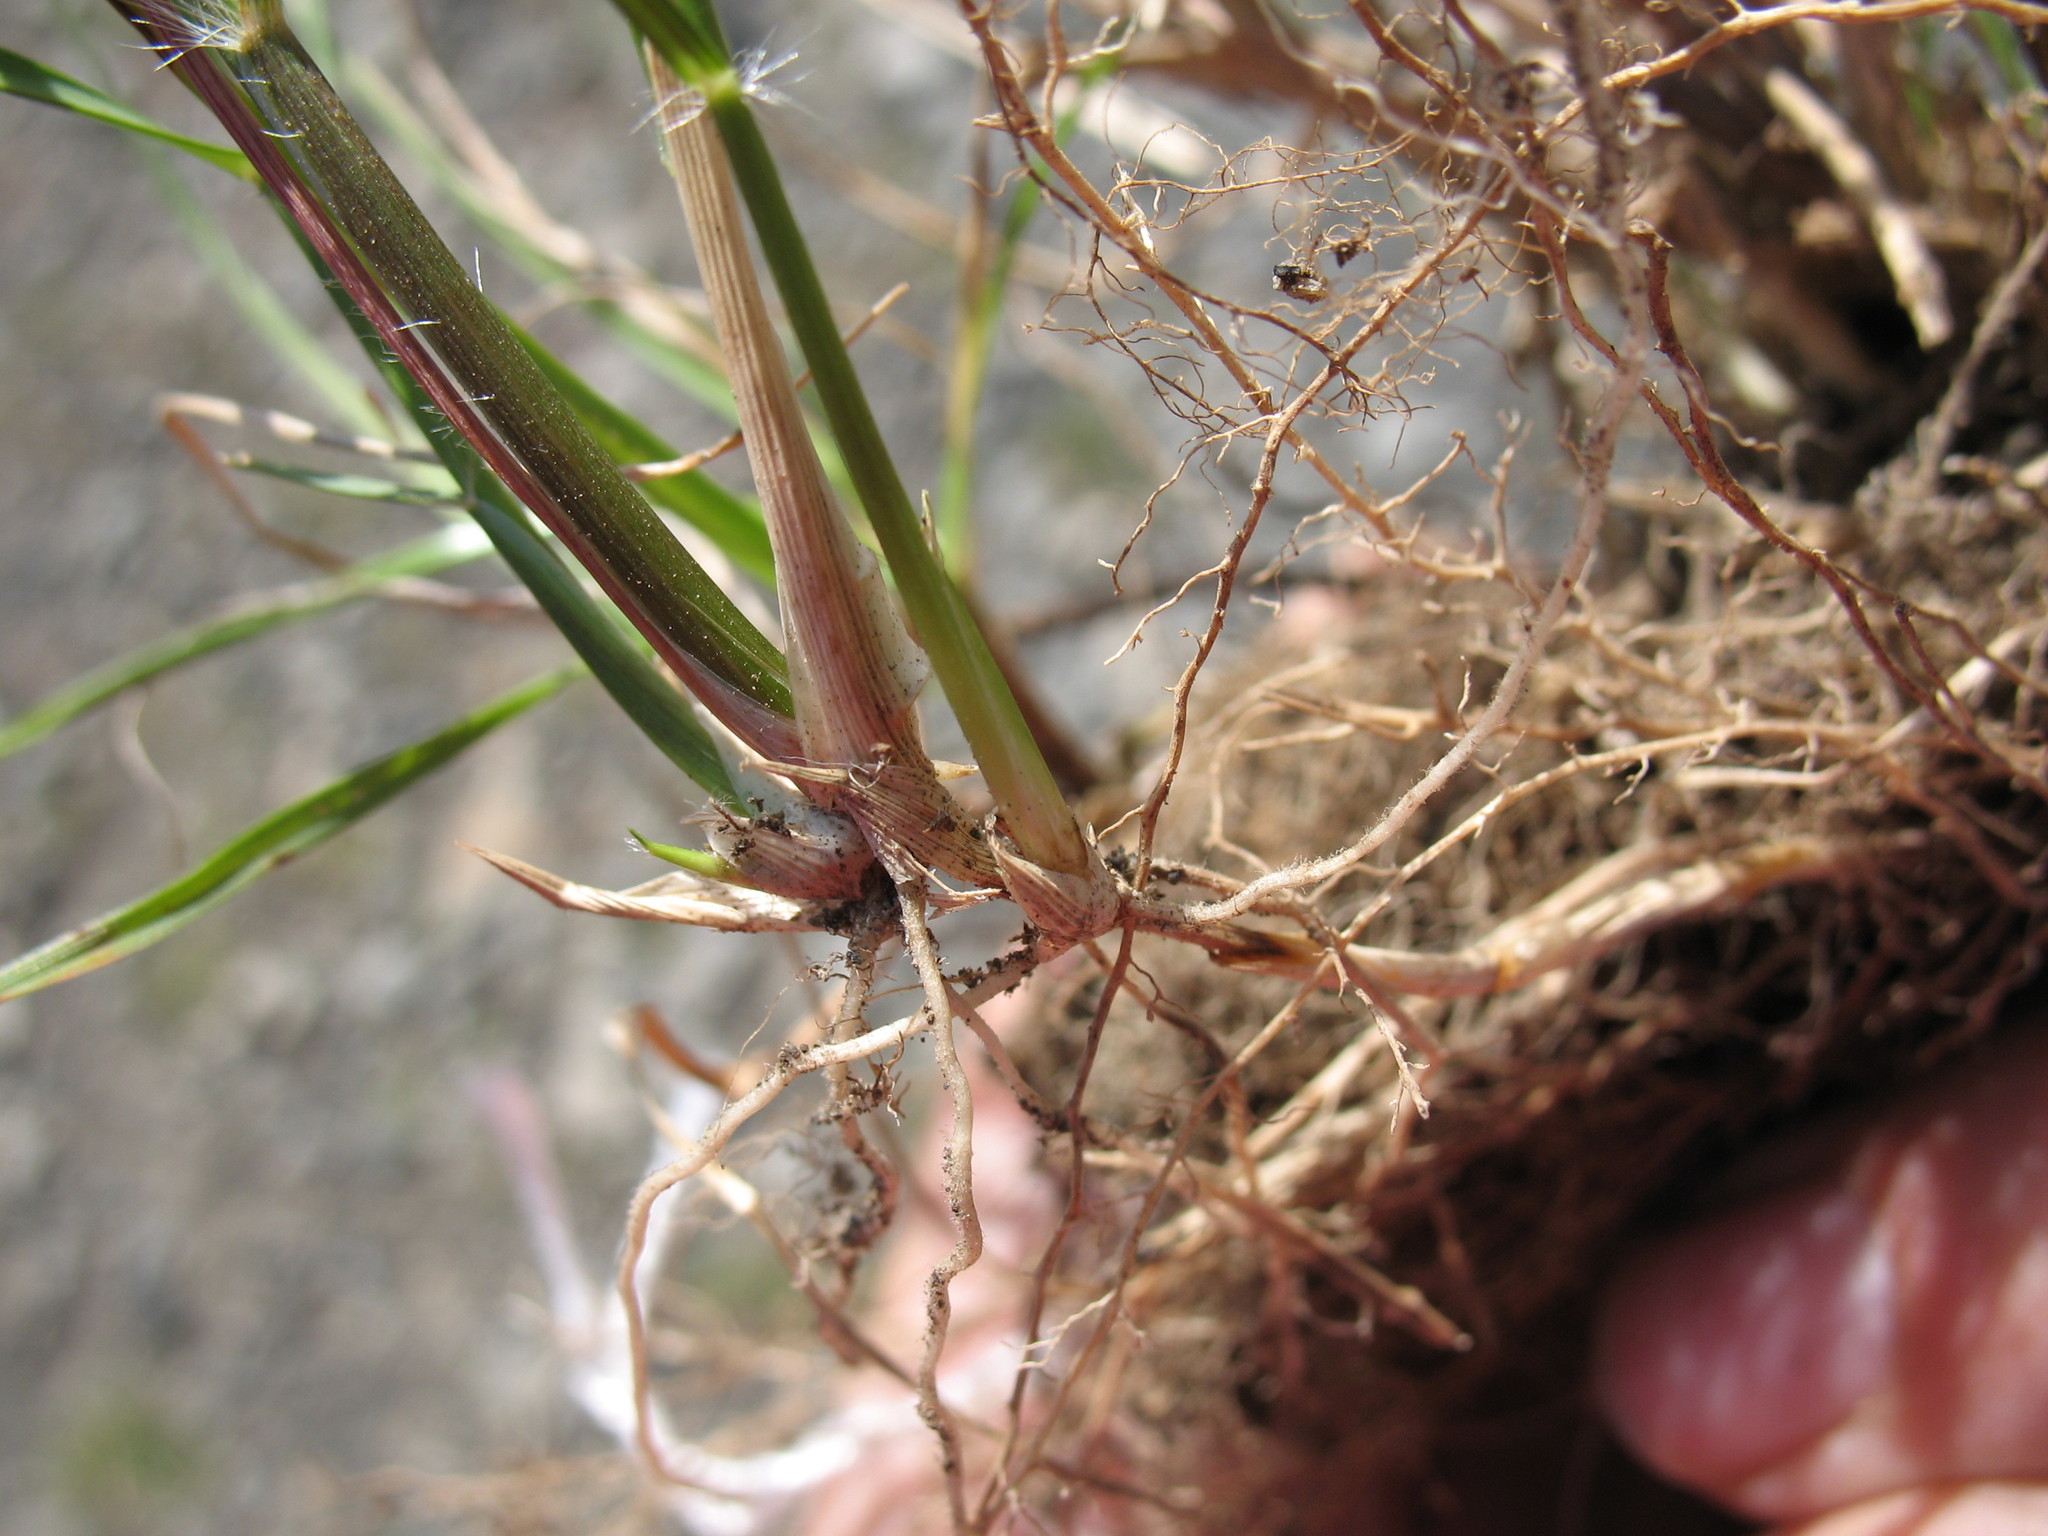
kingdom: Plantae
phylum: Tracheophyta
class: Liliopsida
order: Poales
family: Poaceae
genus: Rytidosperma
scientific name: Rytidosperma unarede
